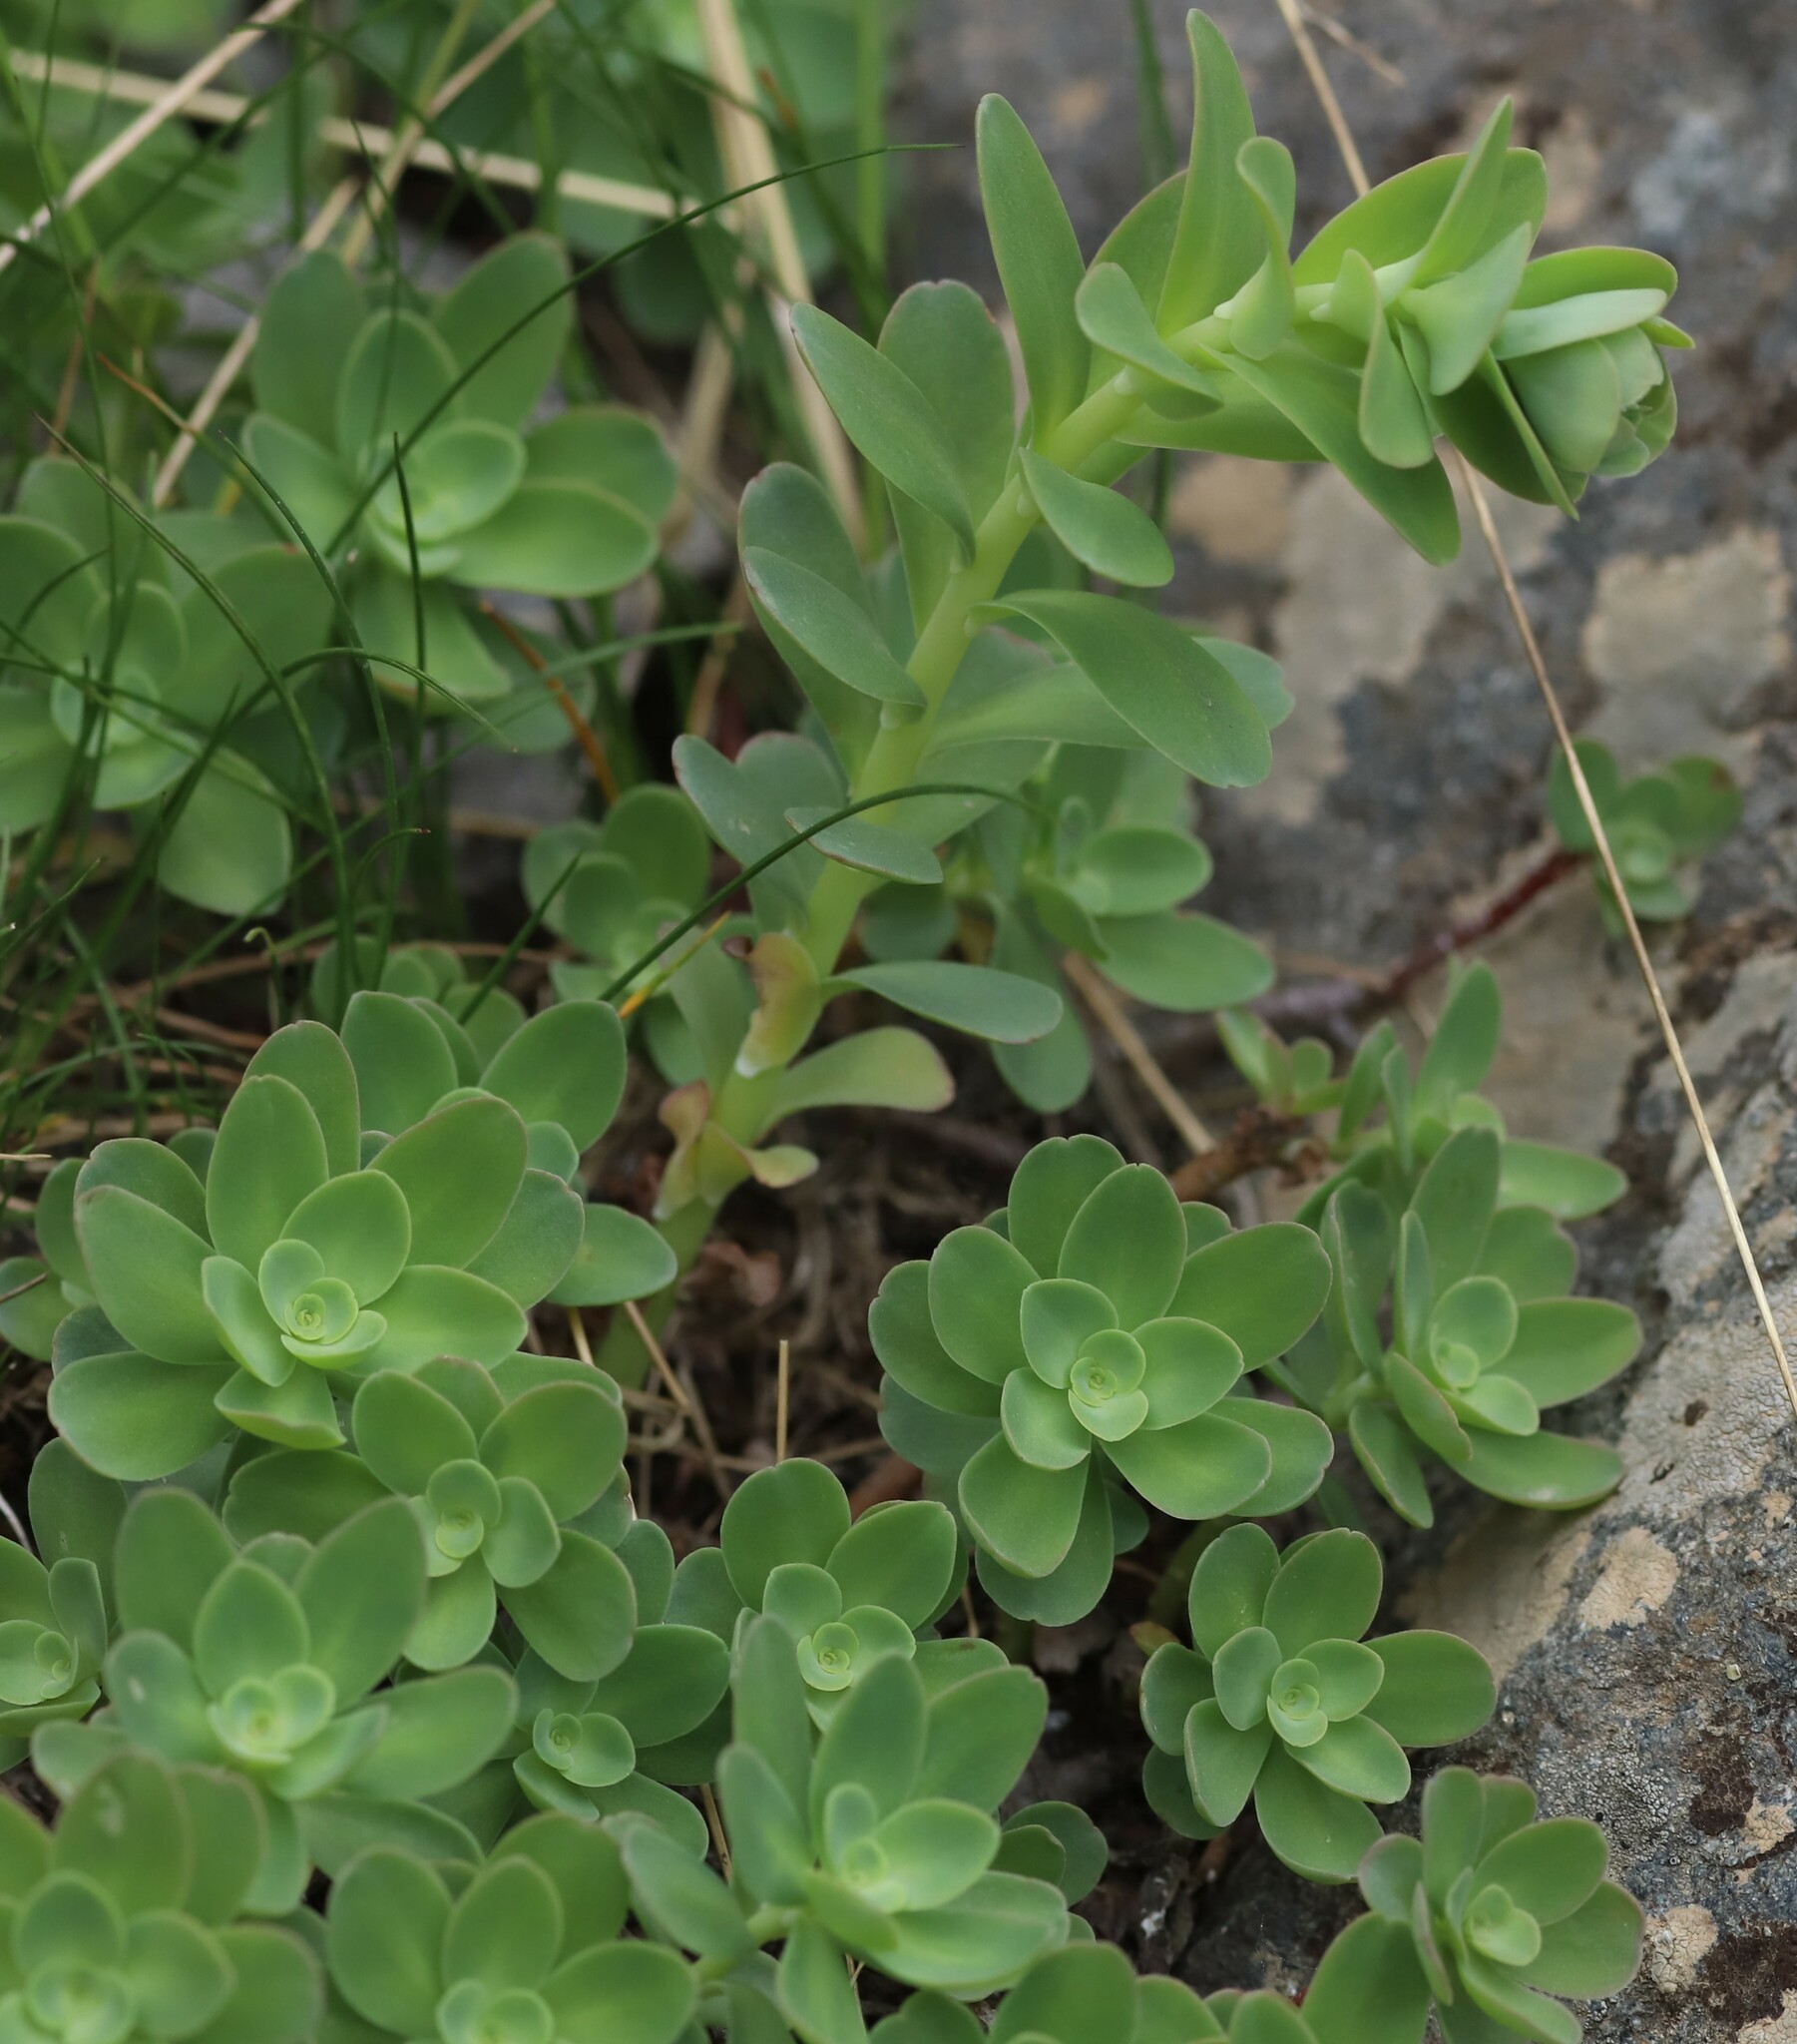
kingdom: Plantae
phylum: Tracheophyta
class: Magnoliopsida
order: Saxifragales
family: Crassulaceae
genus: Hylotelephium
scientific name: Hylotelephium anacampseros
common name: Love-restorer
